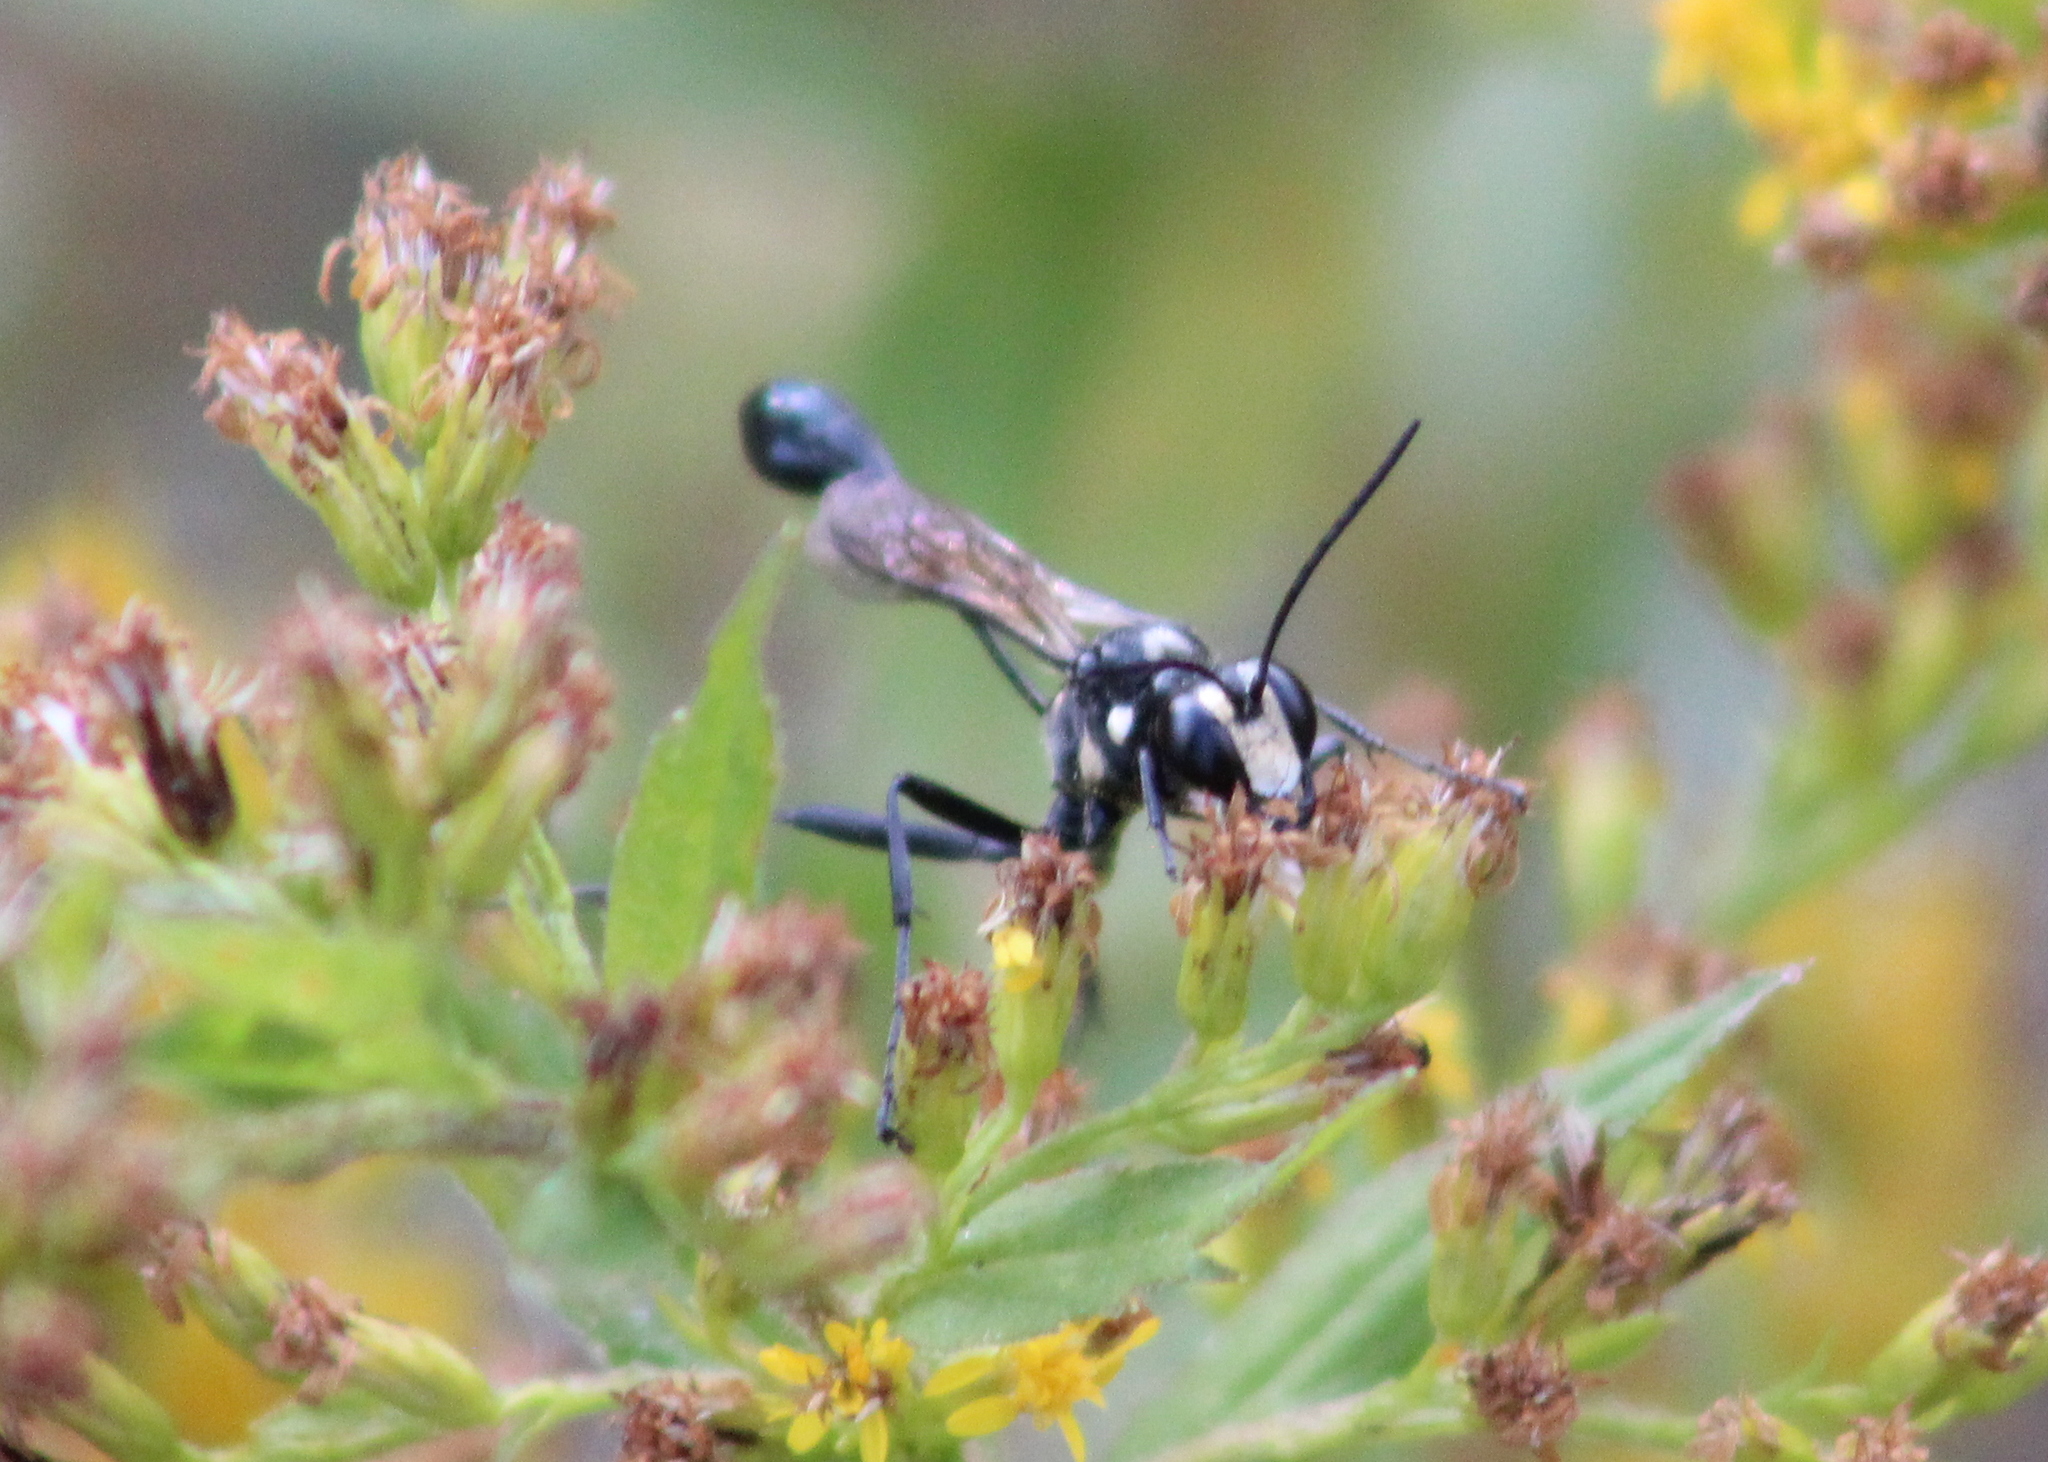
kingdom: Animalia
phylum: Arthropoda
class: Insecta
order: Hymenoptera
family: Sphecidae
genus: Eremnophila
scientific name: Eremnophila aureonotata
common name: Gold-marked thread-waisted wasp
